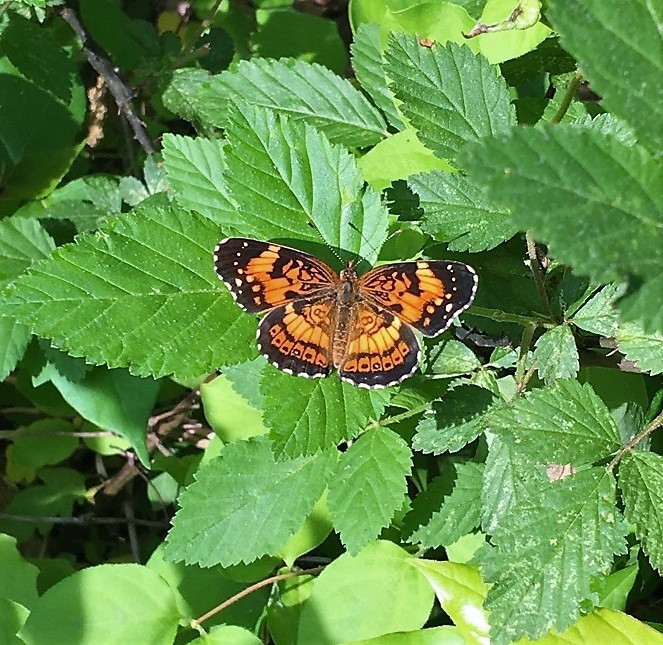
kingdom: Animalia
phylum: Arthropoda
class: Insecta
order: Lepidoptera
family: Nymphalidae
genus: Chlosyne
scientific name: Chlosyne nycteis
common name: Silvery checkerspot
